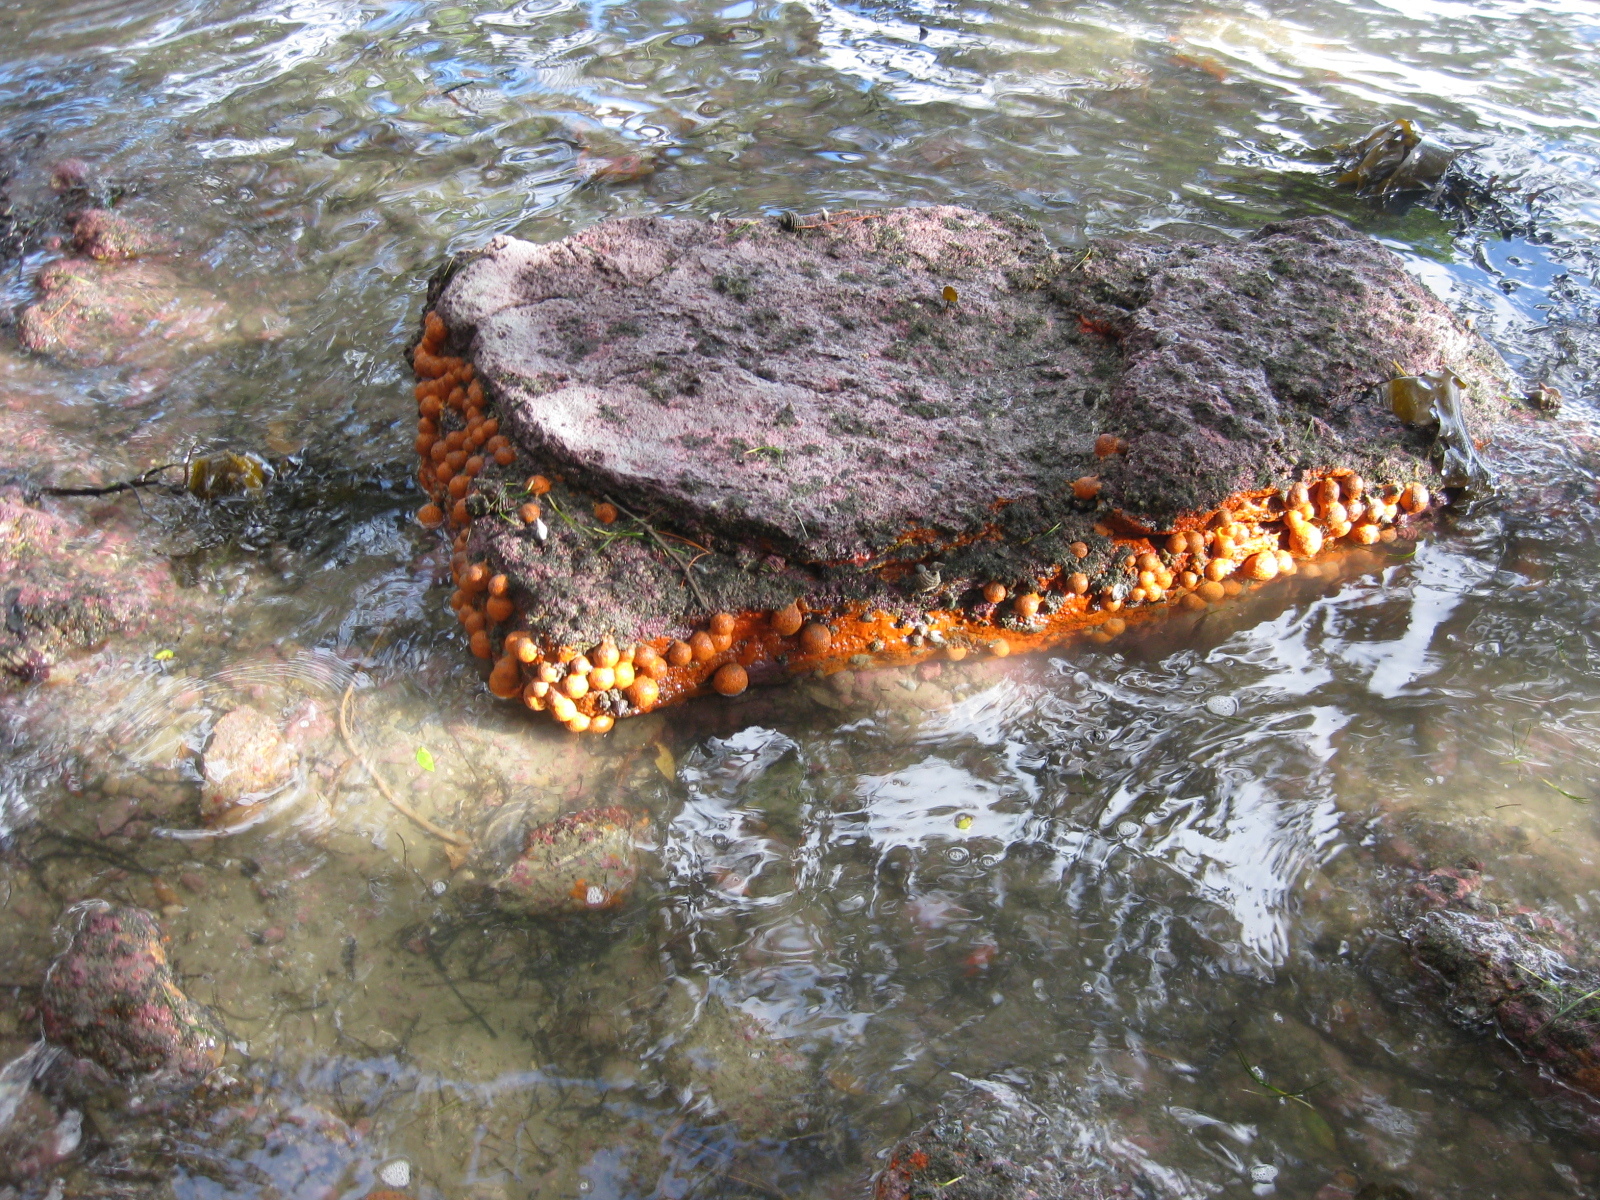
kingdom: Animalia
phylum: Porifera
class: Demospongiae
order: Tethyida
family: Tethyidae
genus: Tethya
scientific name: Tethya burtoni
